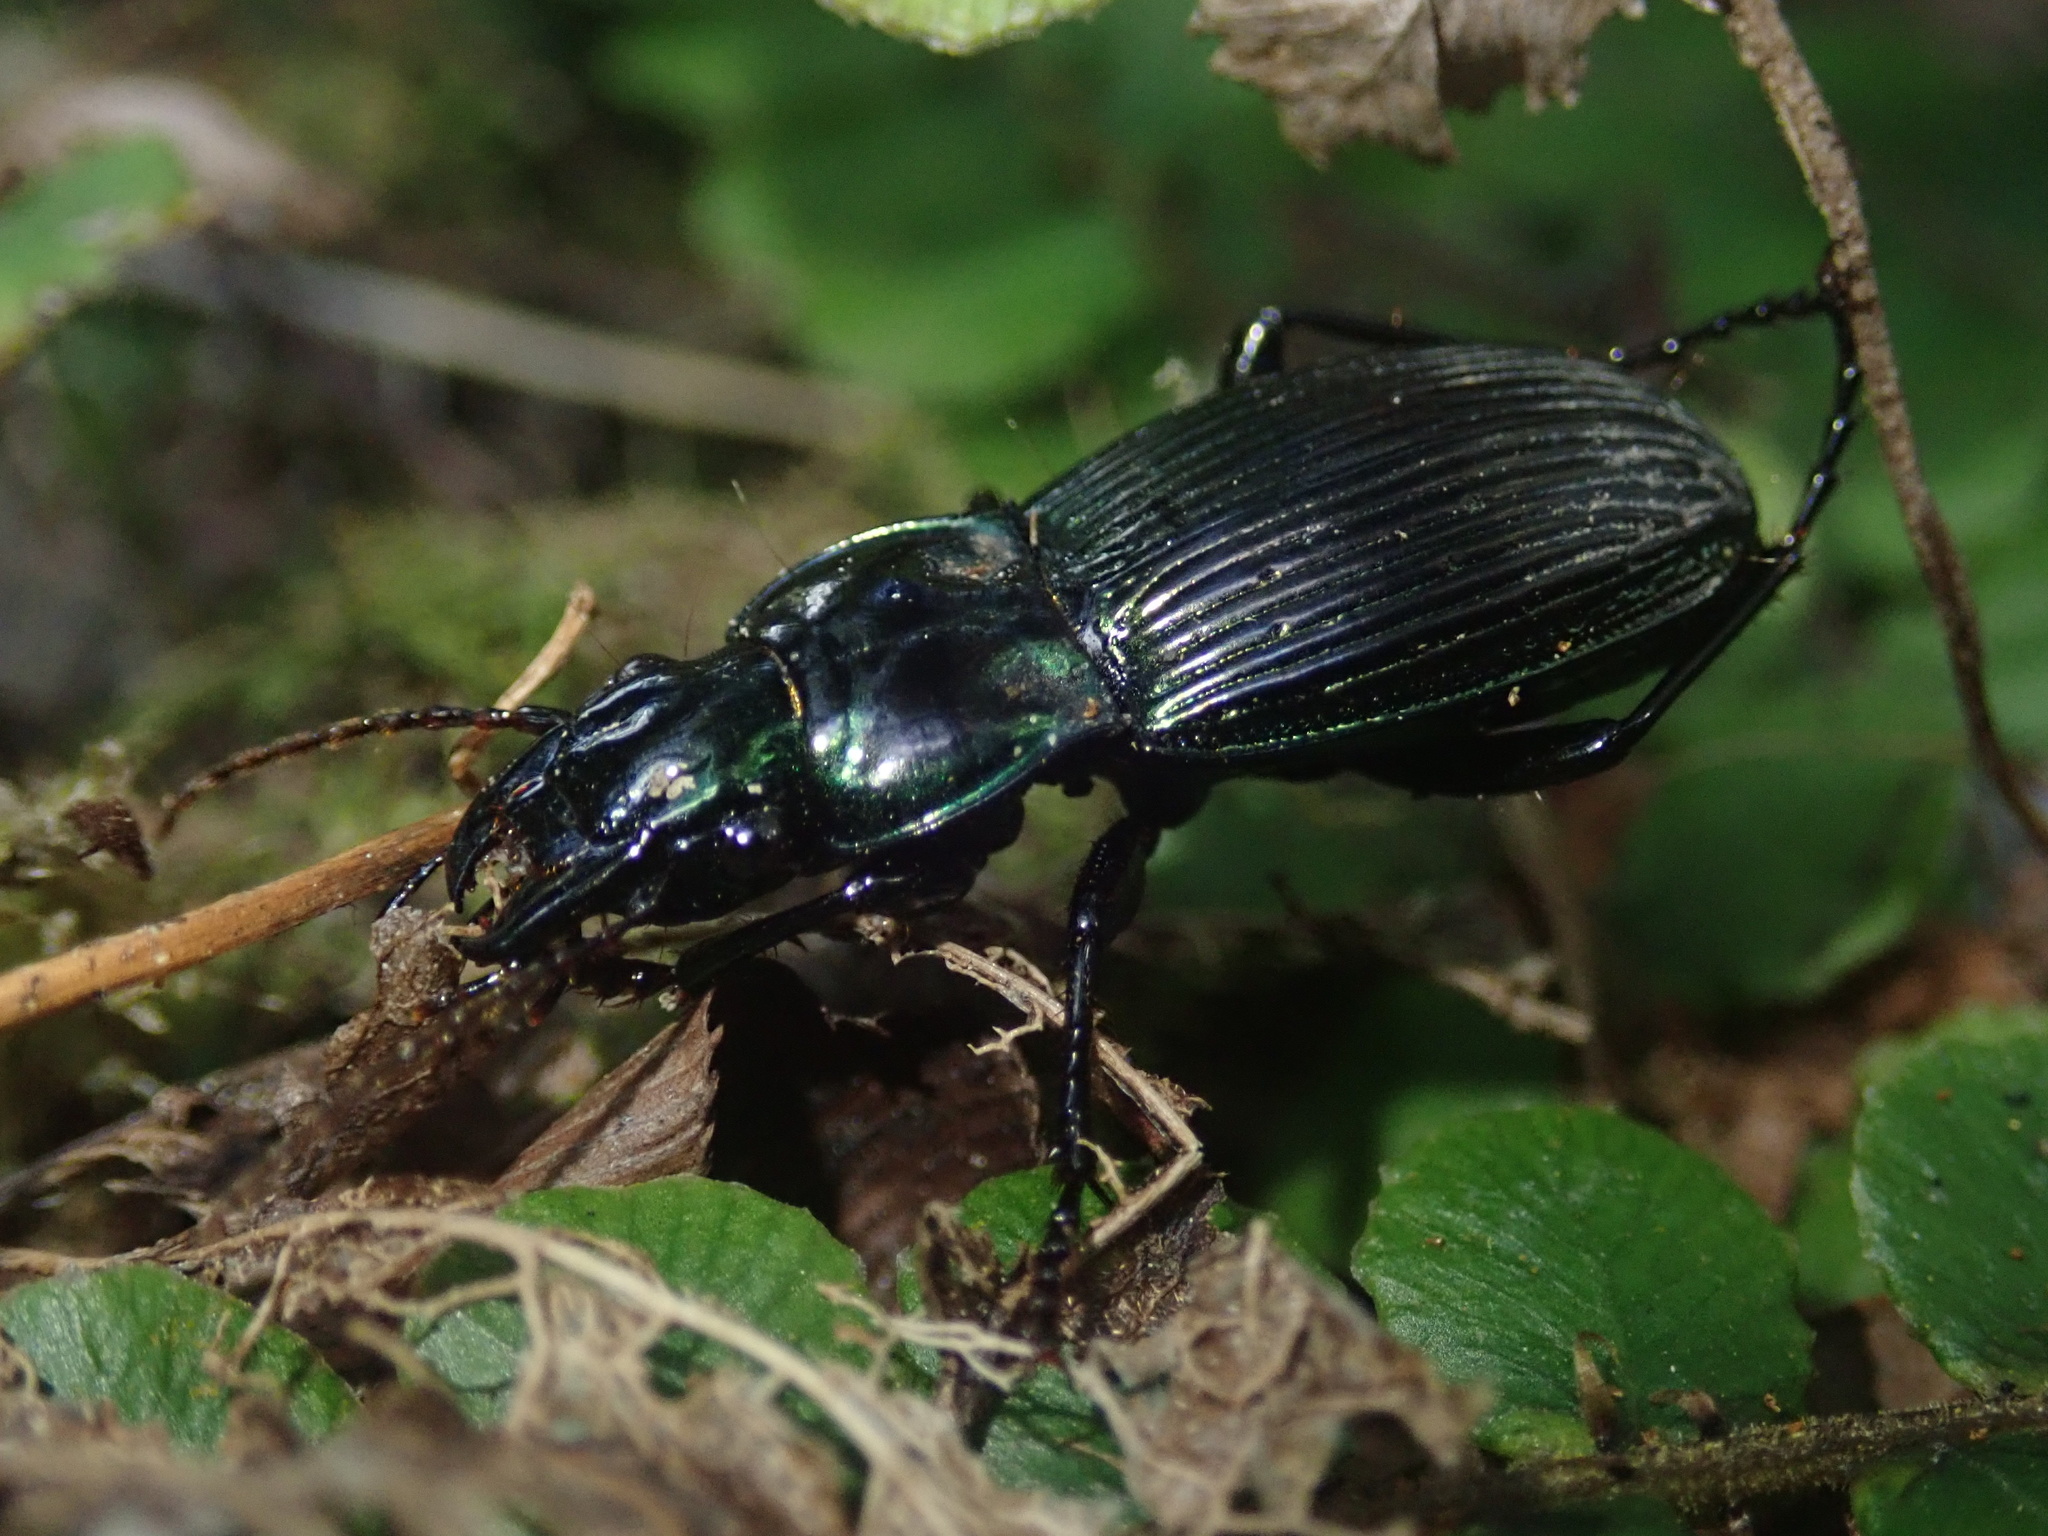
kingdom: Animalia
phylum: Arthropoda
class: Insecta
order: Coleoptera
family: Carabidae
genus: Megadromus
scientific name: Megadromus capito
